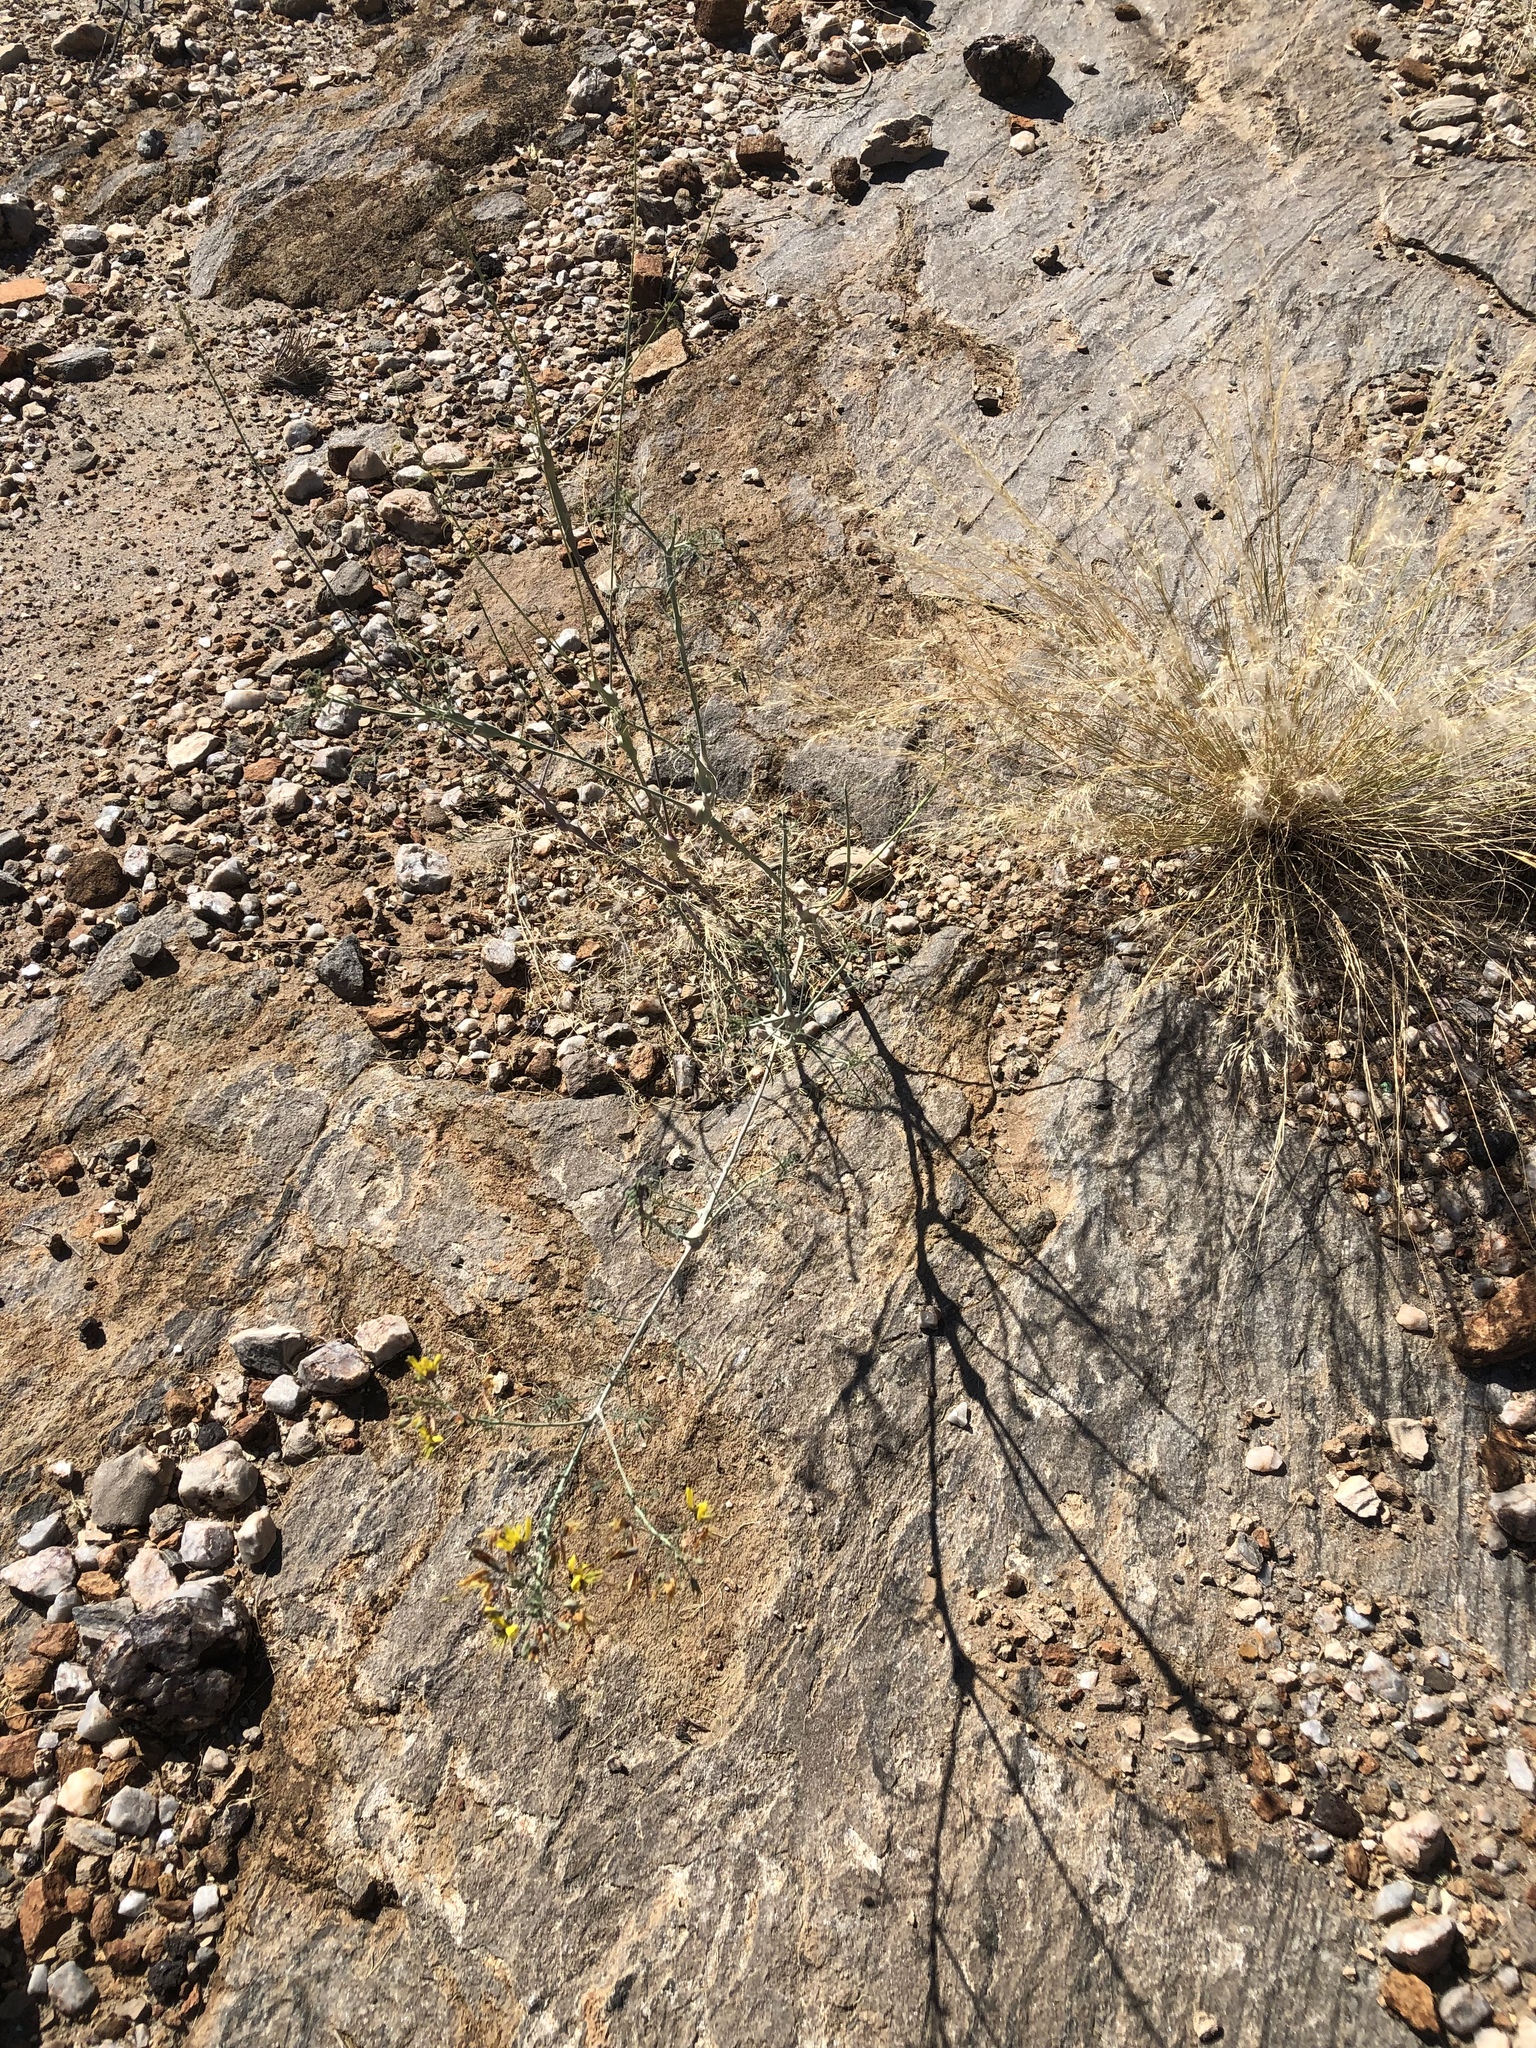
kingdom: Plantae
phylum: Tracheophyta
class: Magnoliopsida
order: Brassicales
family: Cleomaceae
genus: Coalisina
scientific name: Coalisina angustifolia
